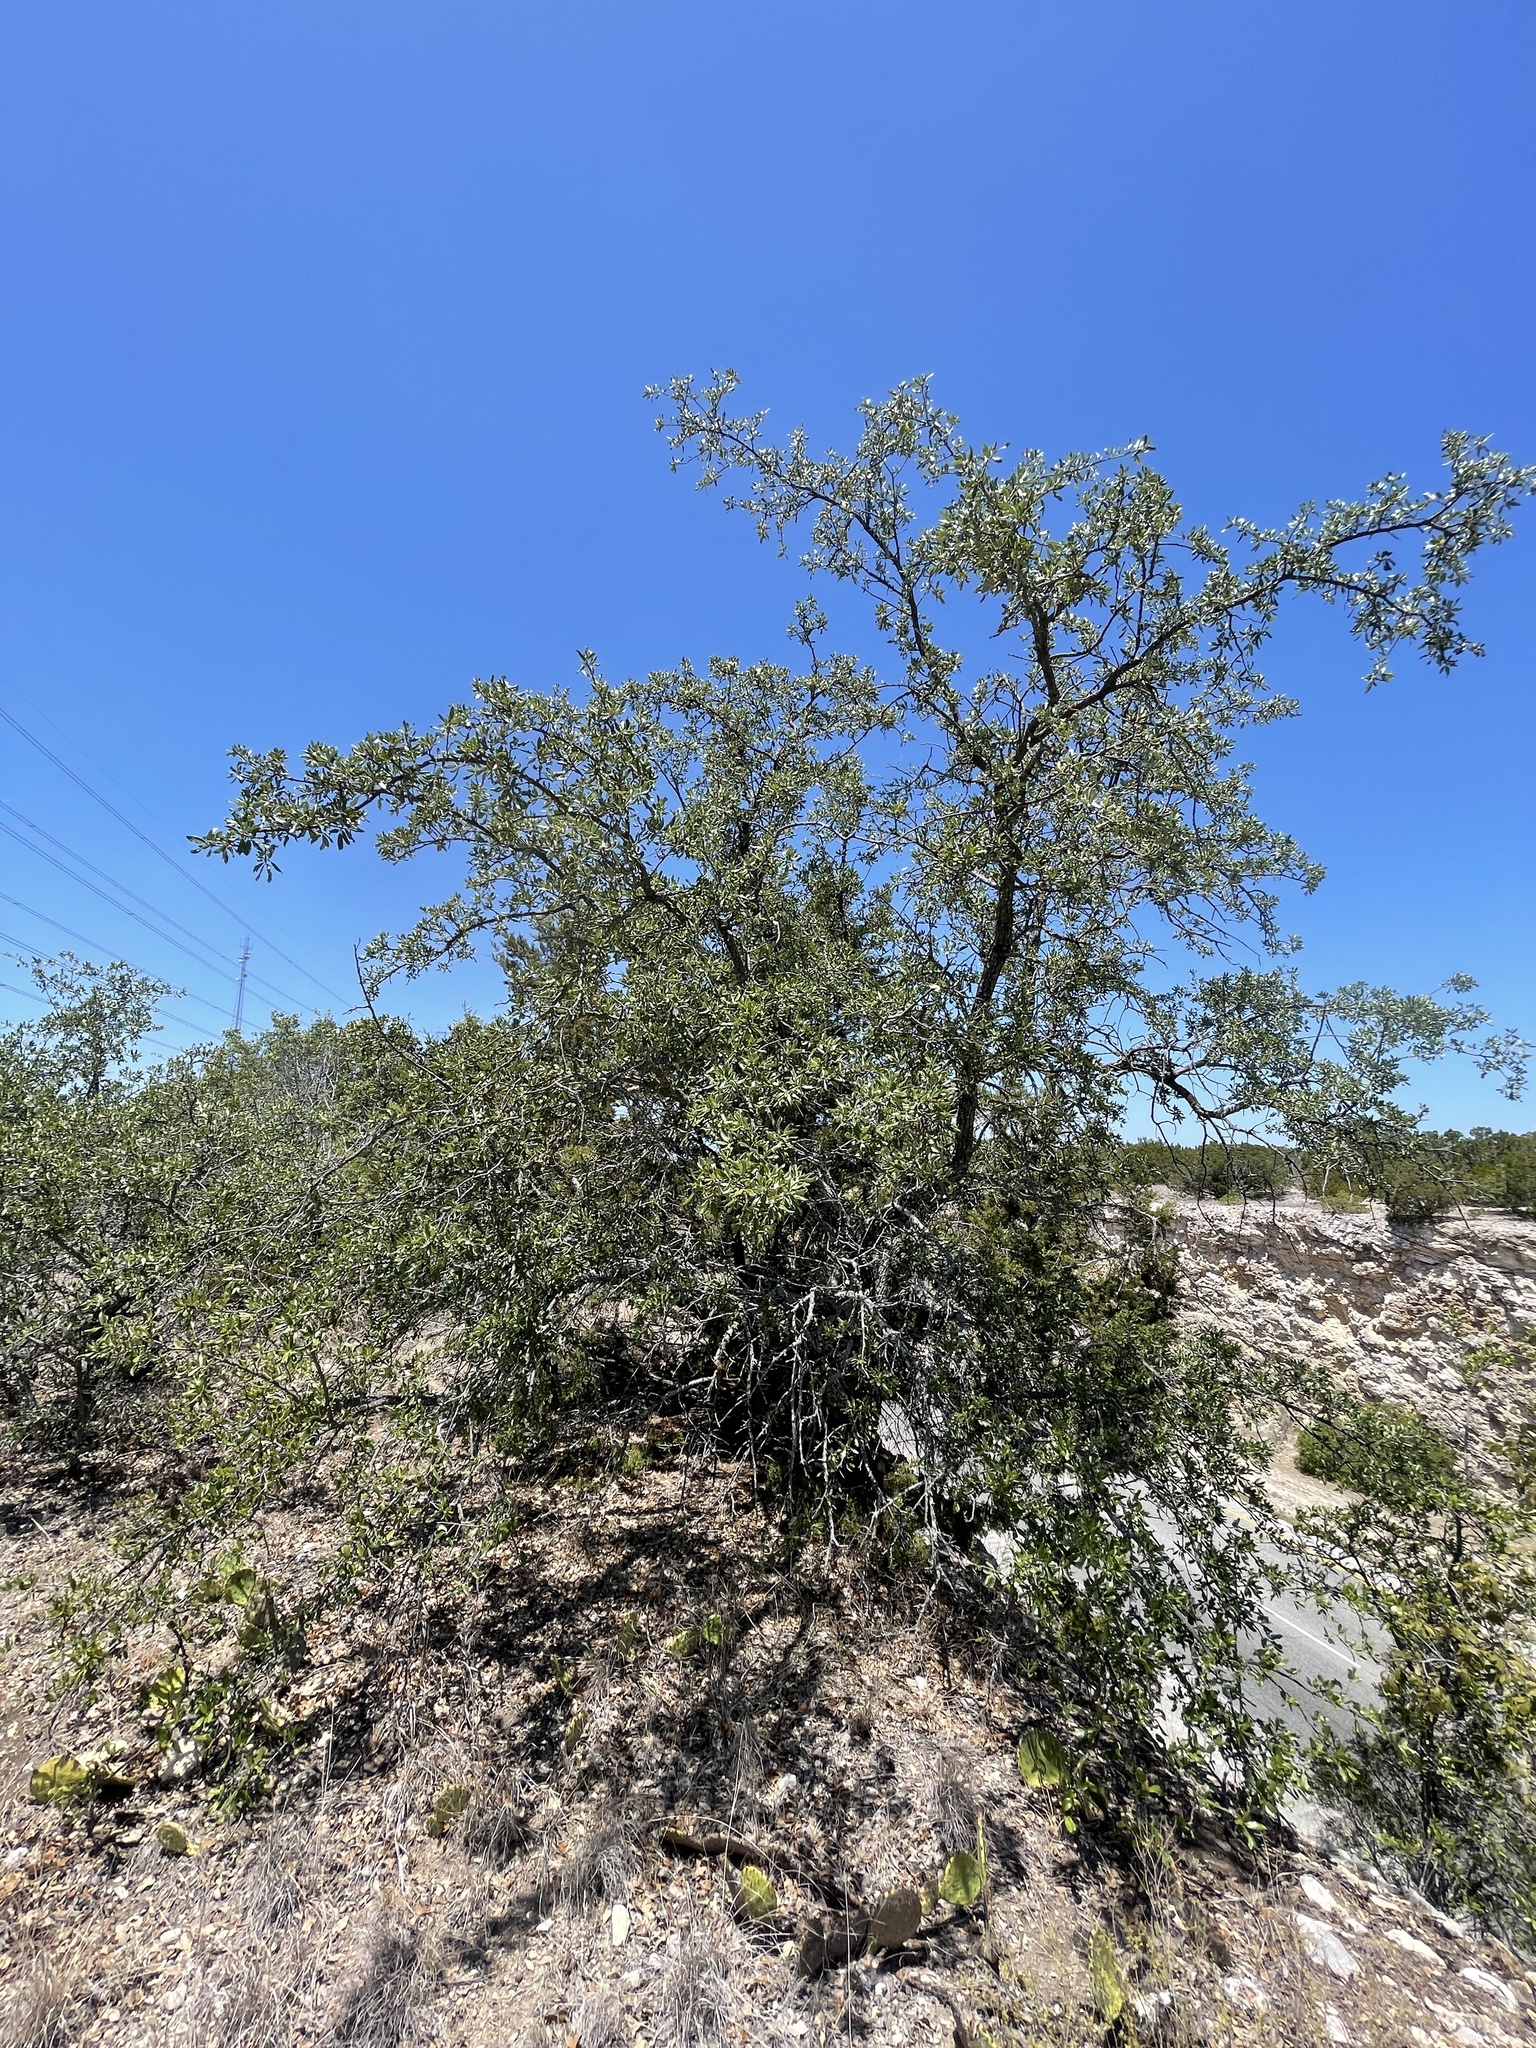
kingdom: Plantae
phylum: Tracheophyta
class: Magnoliopsida
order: Fagales
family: Fagaceae
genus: Quercus
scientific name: Quercus fusiformis
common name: Texas live oak
